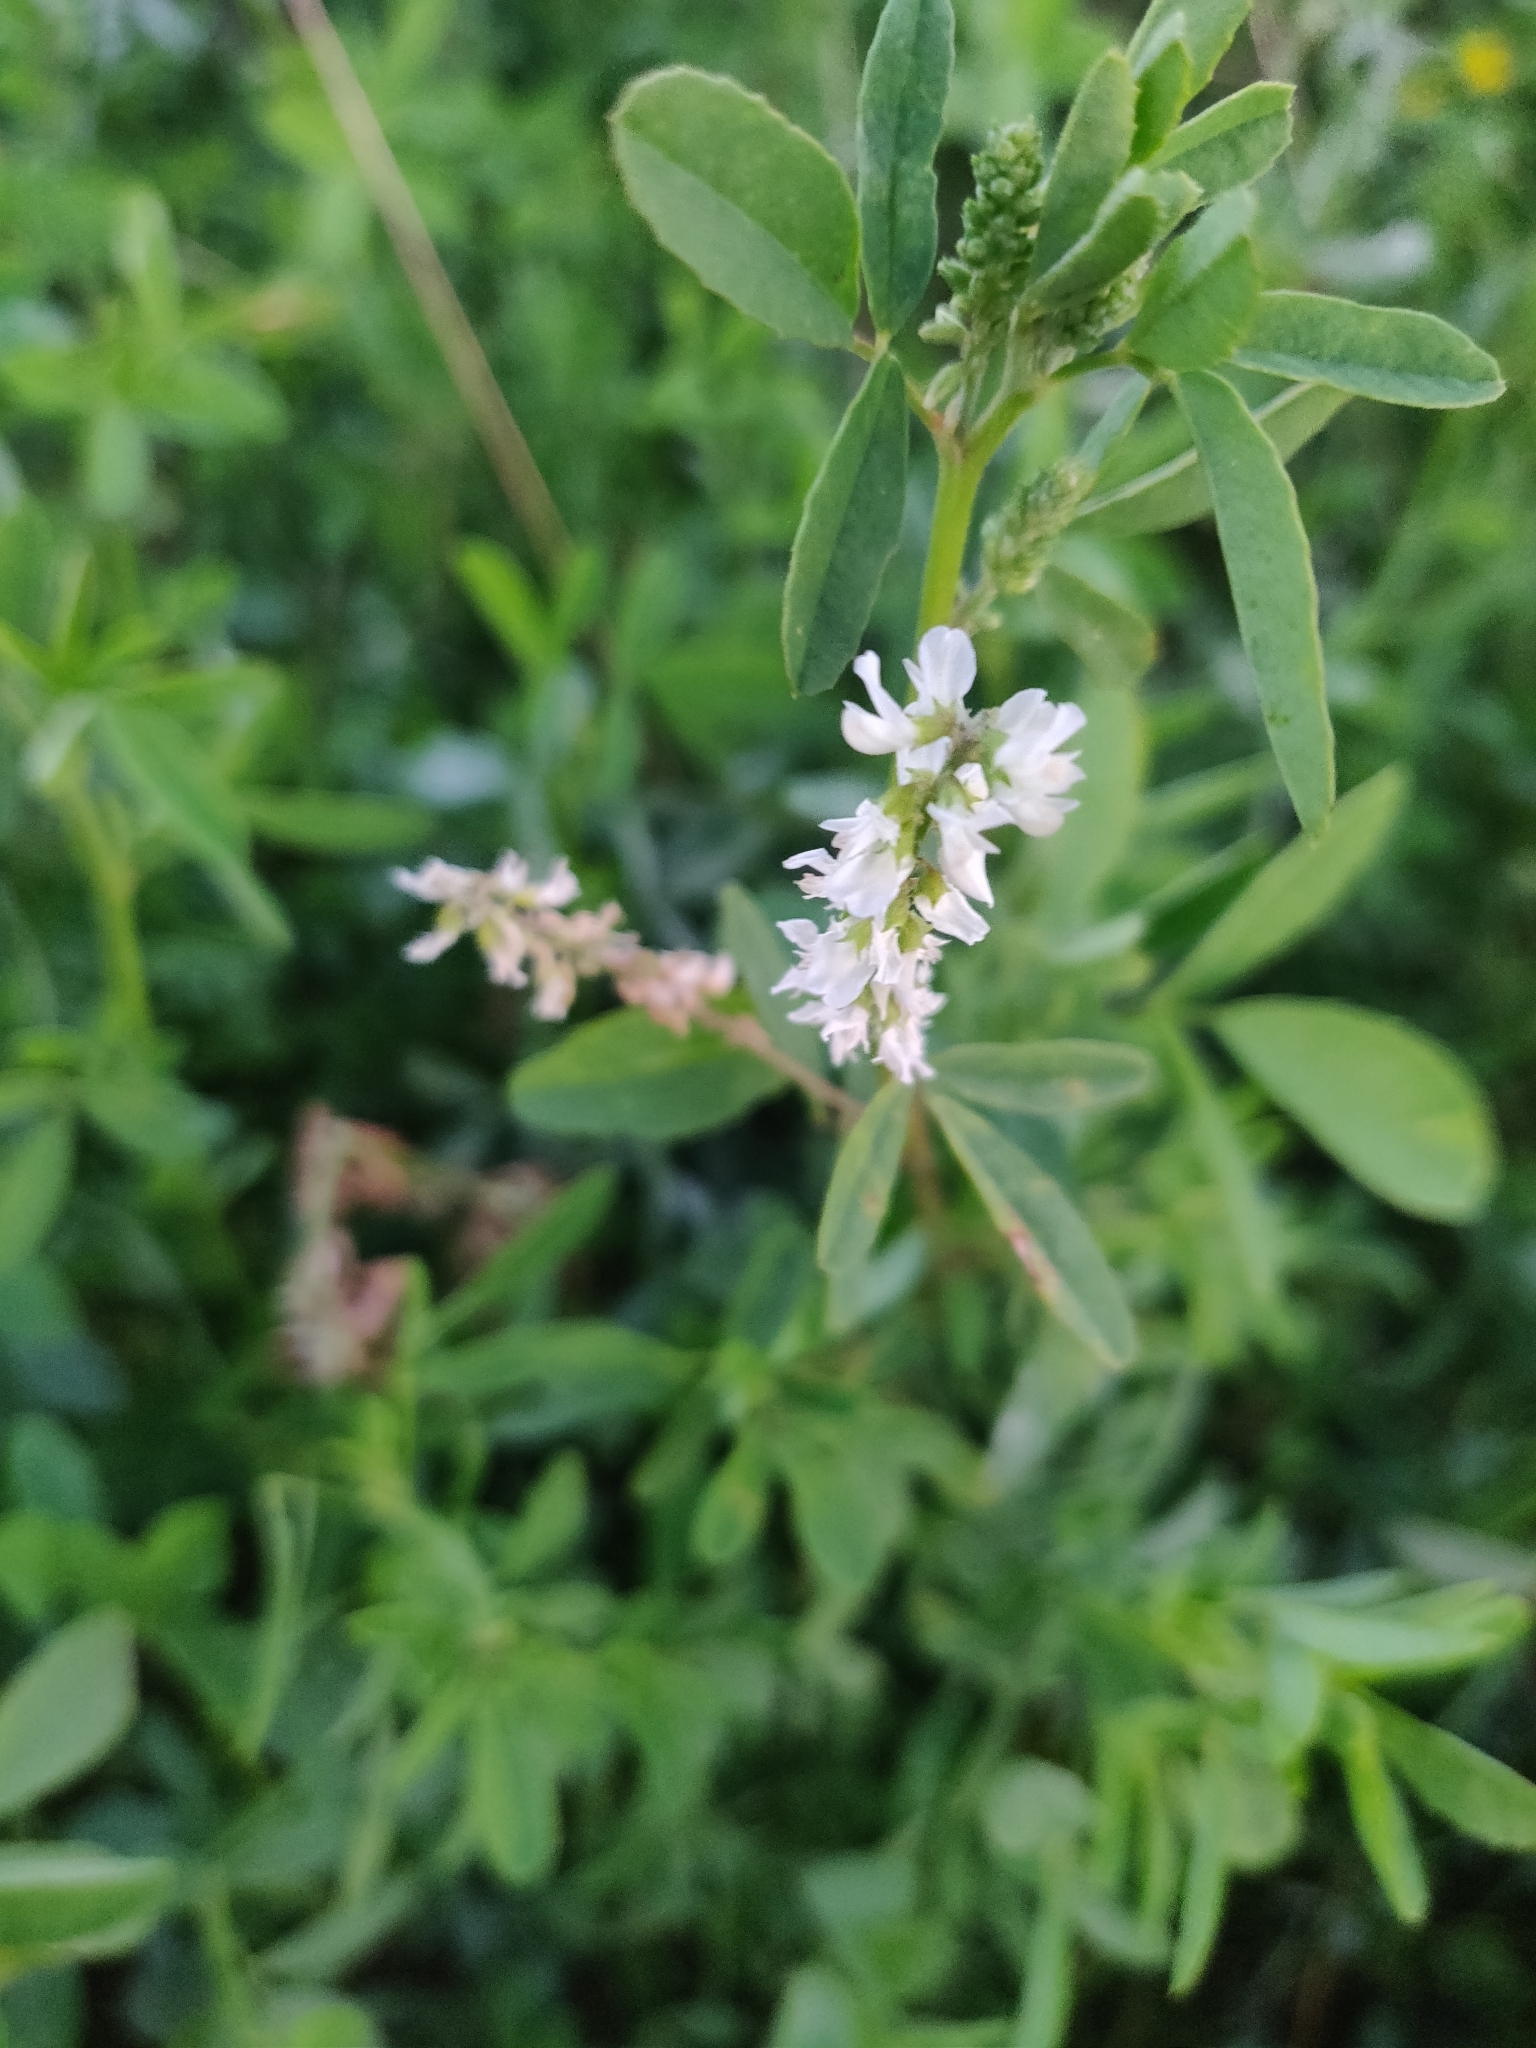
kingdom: Plantae
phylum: Tracheophyta
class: Magnoliopsida
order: Fabales
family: Fabaceae
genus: Melilotus
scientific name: Melilotus albus
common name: White melilot
